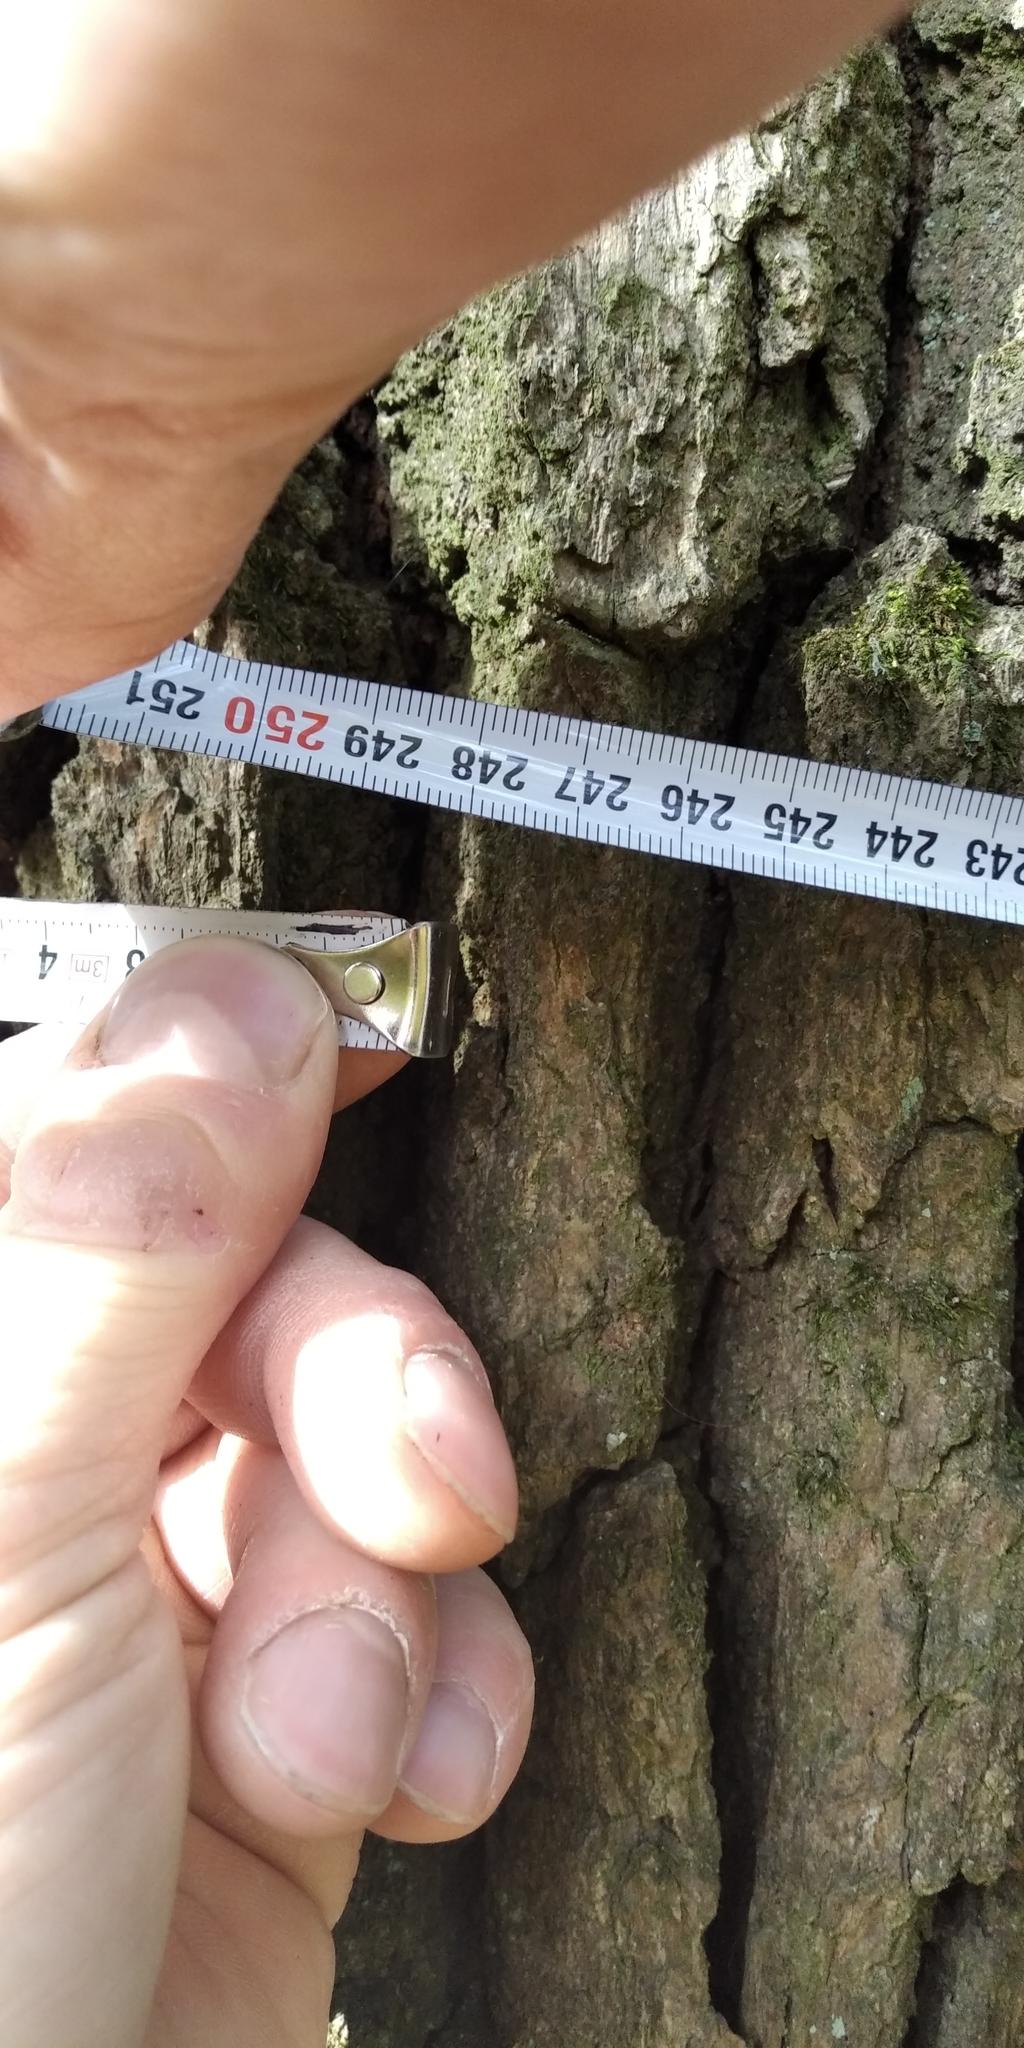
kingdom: Plantae
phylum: Tracheophyta
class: Magnoliopsida
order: Fagales
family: Fagaceae
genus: Quercus
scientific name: Quercus robur
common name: Pedunculate oak
